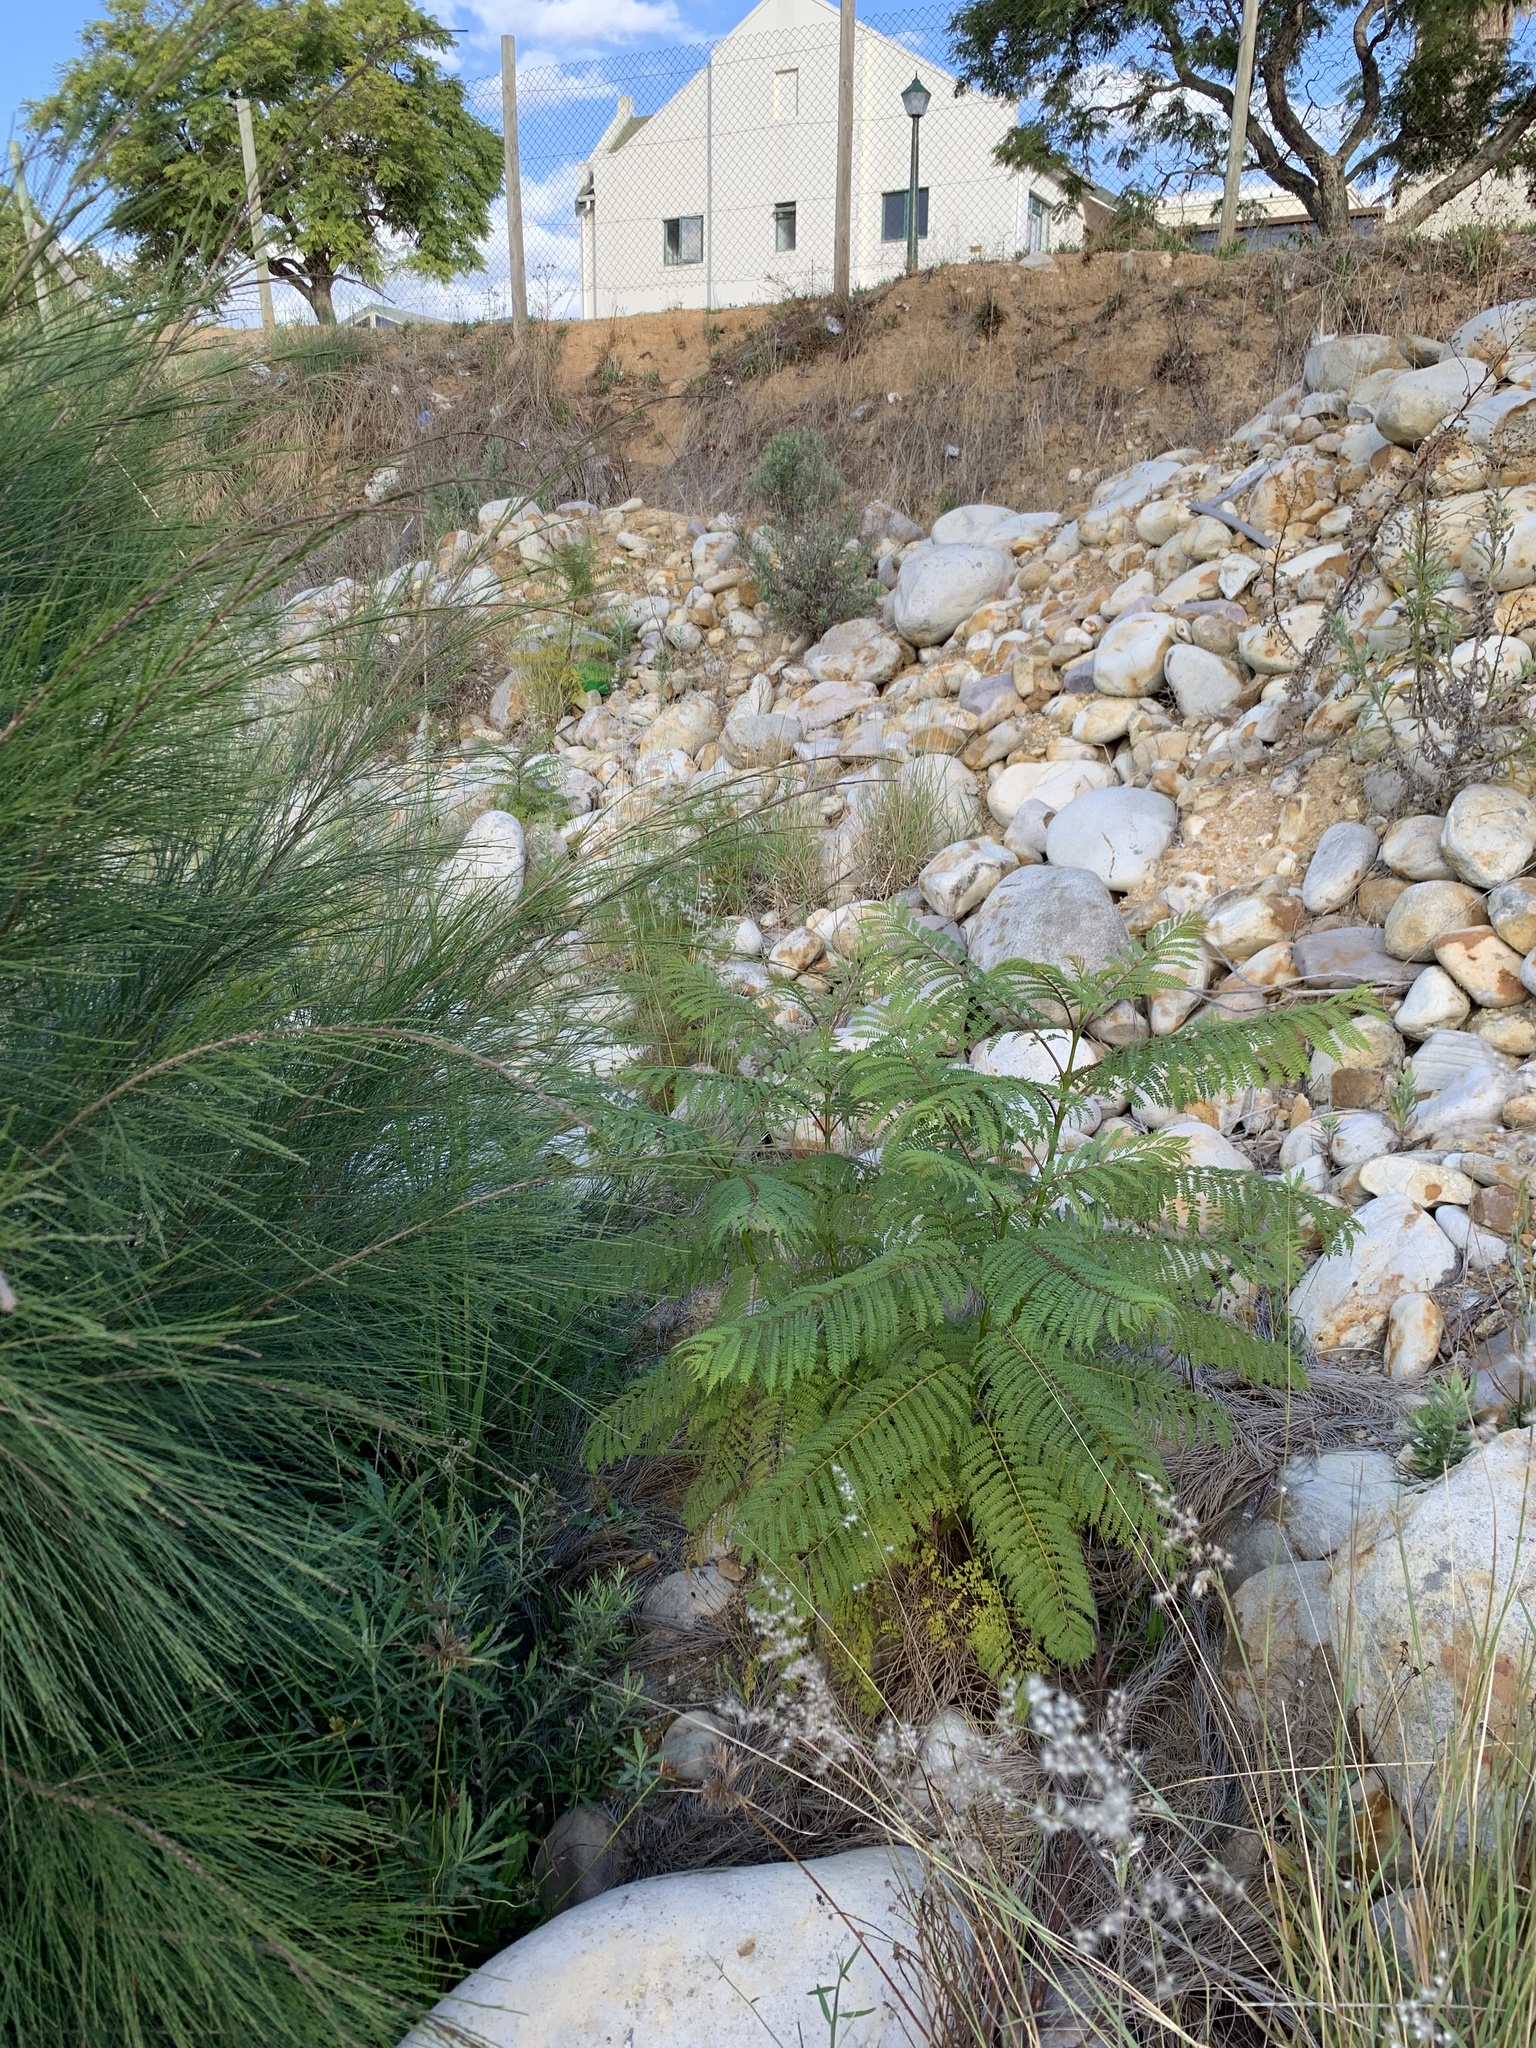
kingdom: Plantae
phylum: Tracheophyta
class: Magnoliopsida
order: Lamiales
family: Bignoniaceae
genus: Jacaranda
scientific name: Jacaranda mimosifolia
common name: Black poui
